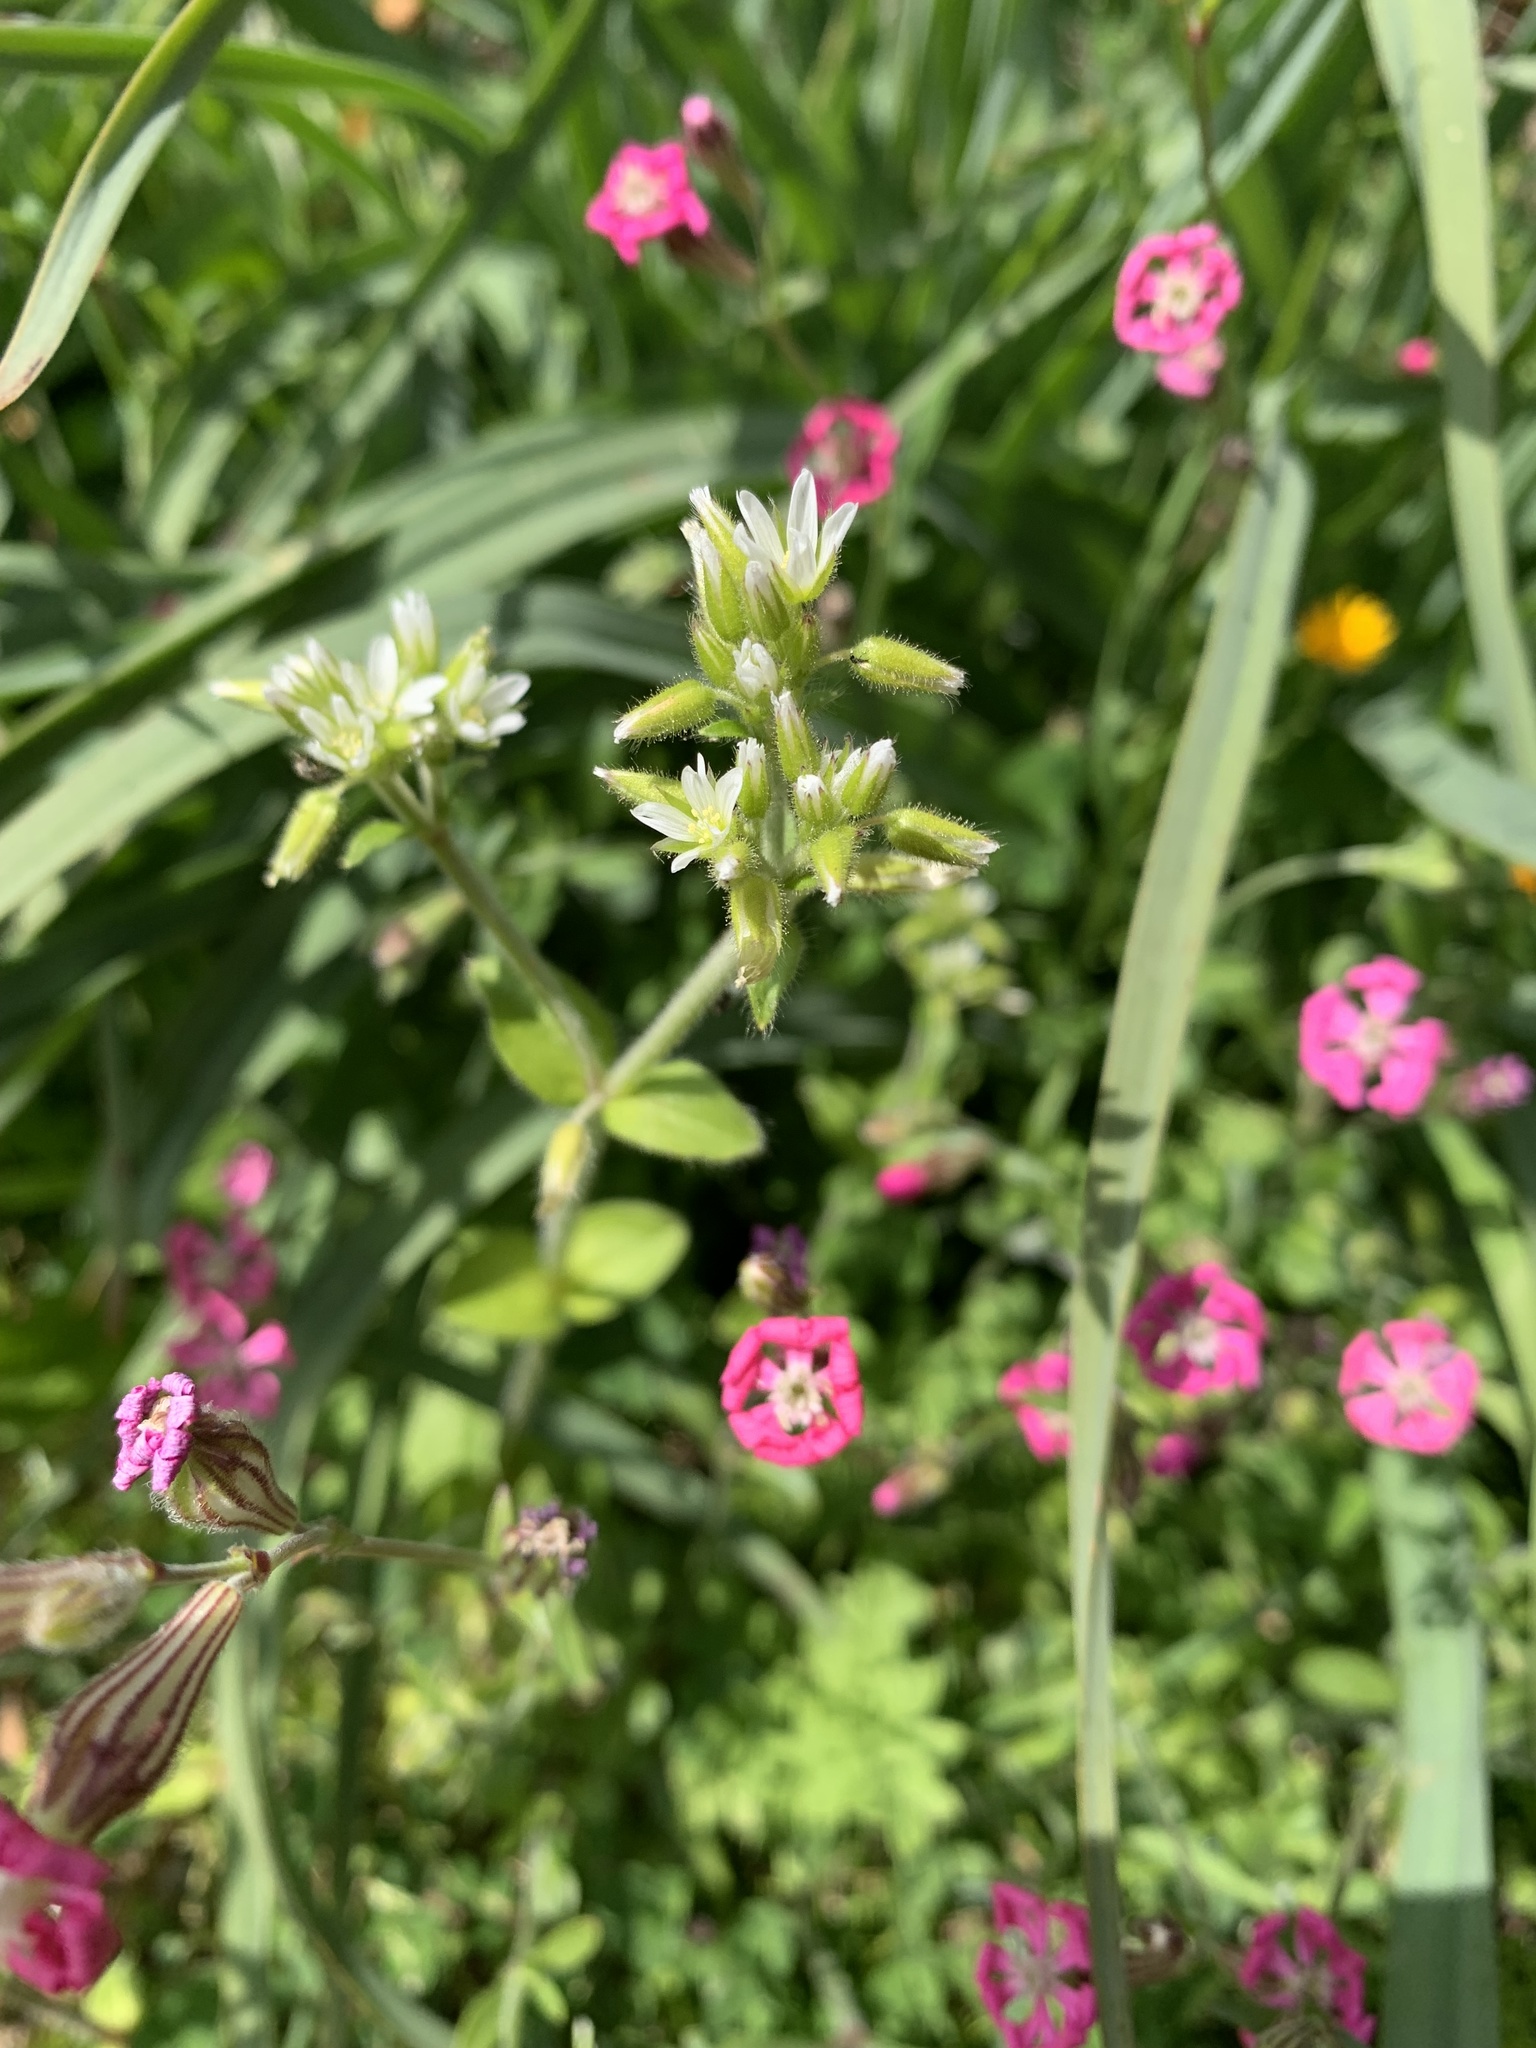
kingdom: Plantae
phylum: Tracheophyta
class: Magnoliopsida
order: Caryophyllales
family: Caryophyllaceae
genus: Silene
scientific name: Silene colorata
